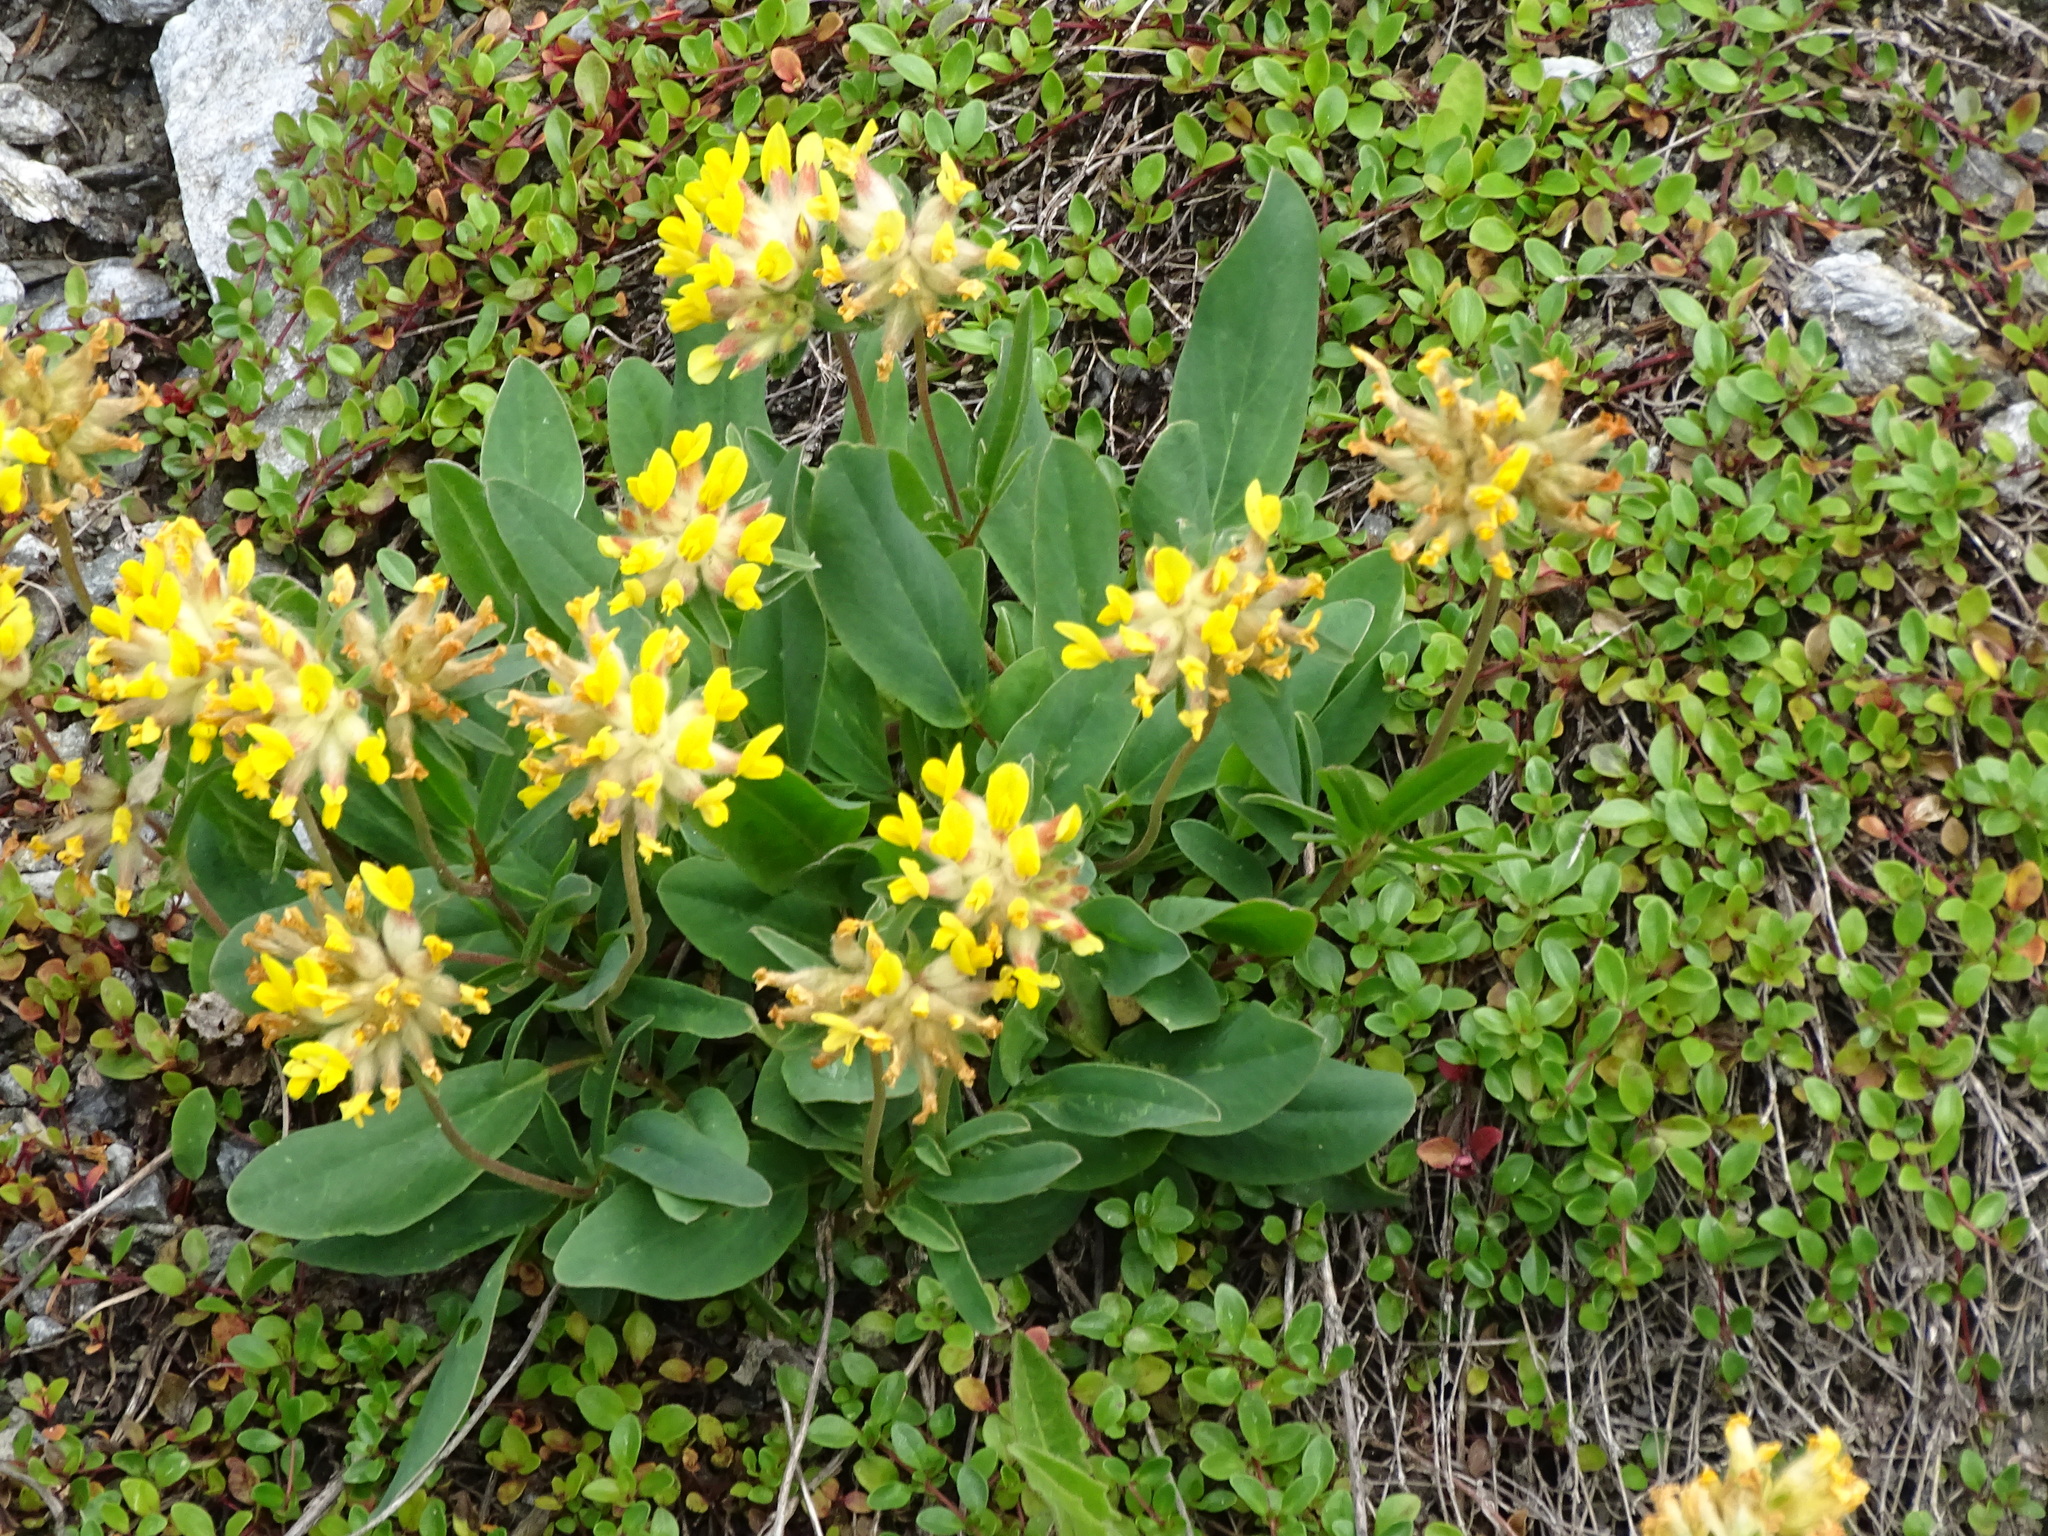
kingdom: Plantae
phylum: Tracheophyta
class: Magnoliopsida
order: Fabales
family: Fabaceae
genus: Anthyllis
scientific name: Anthyllis vulneraria
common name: Kidney vetch
